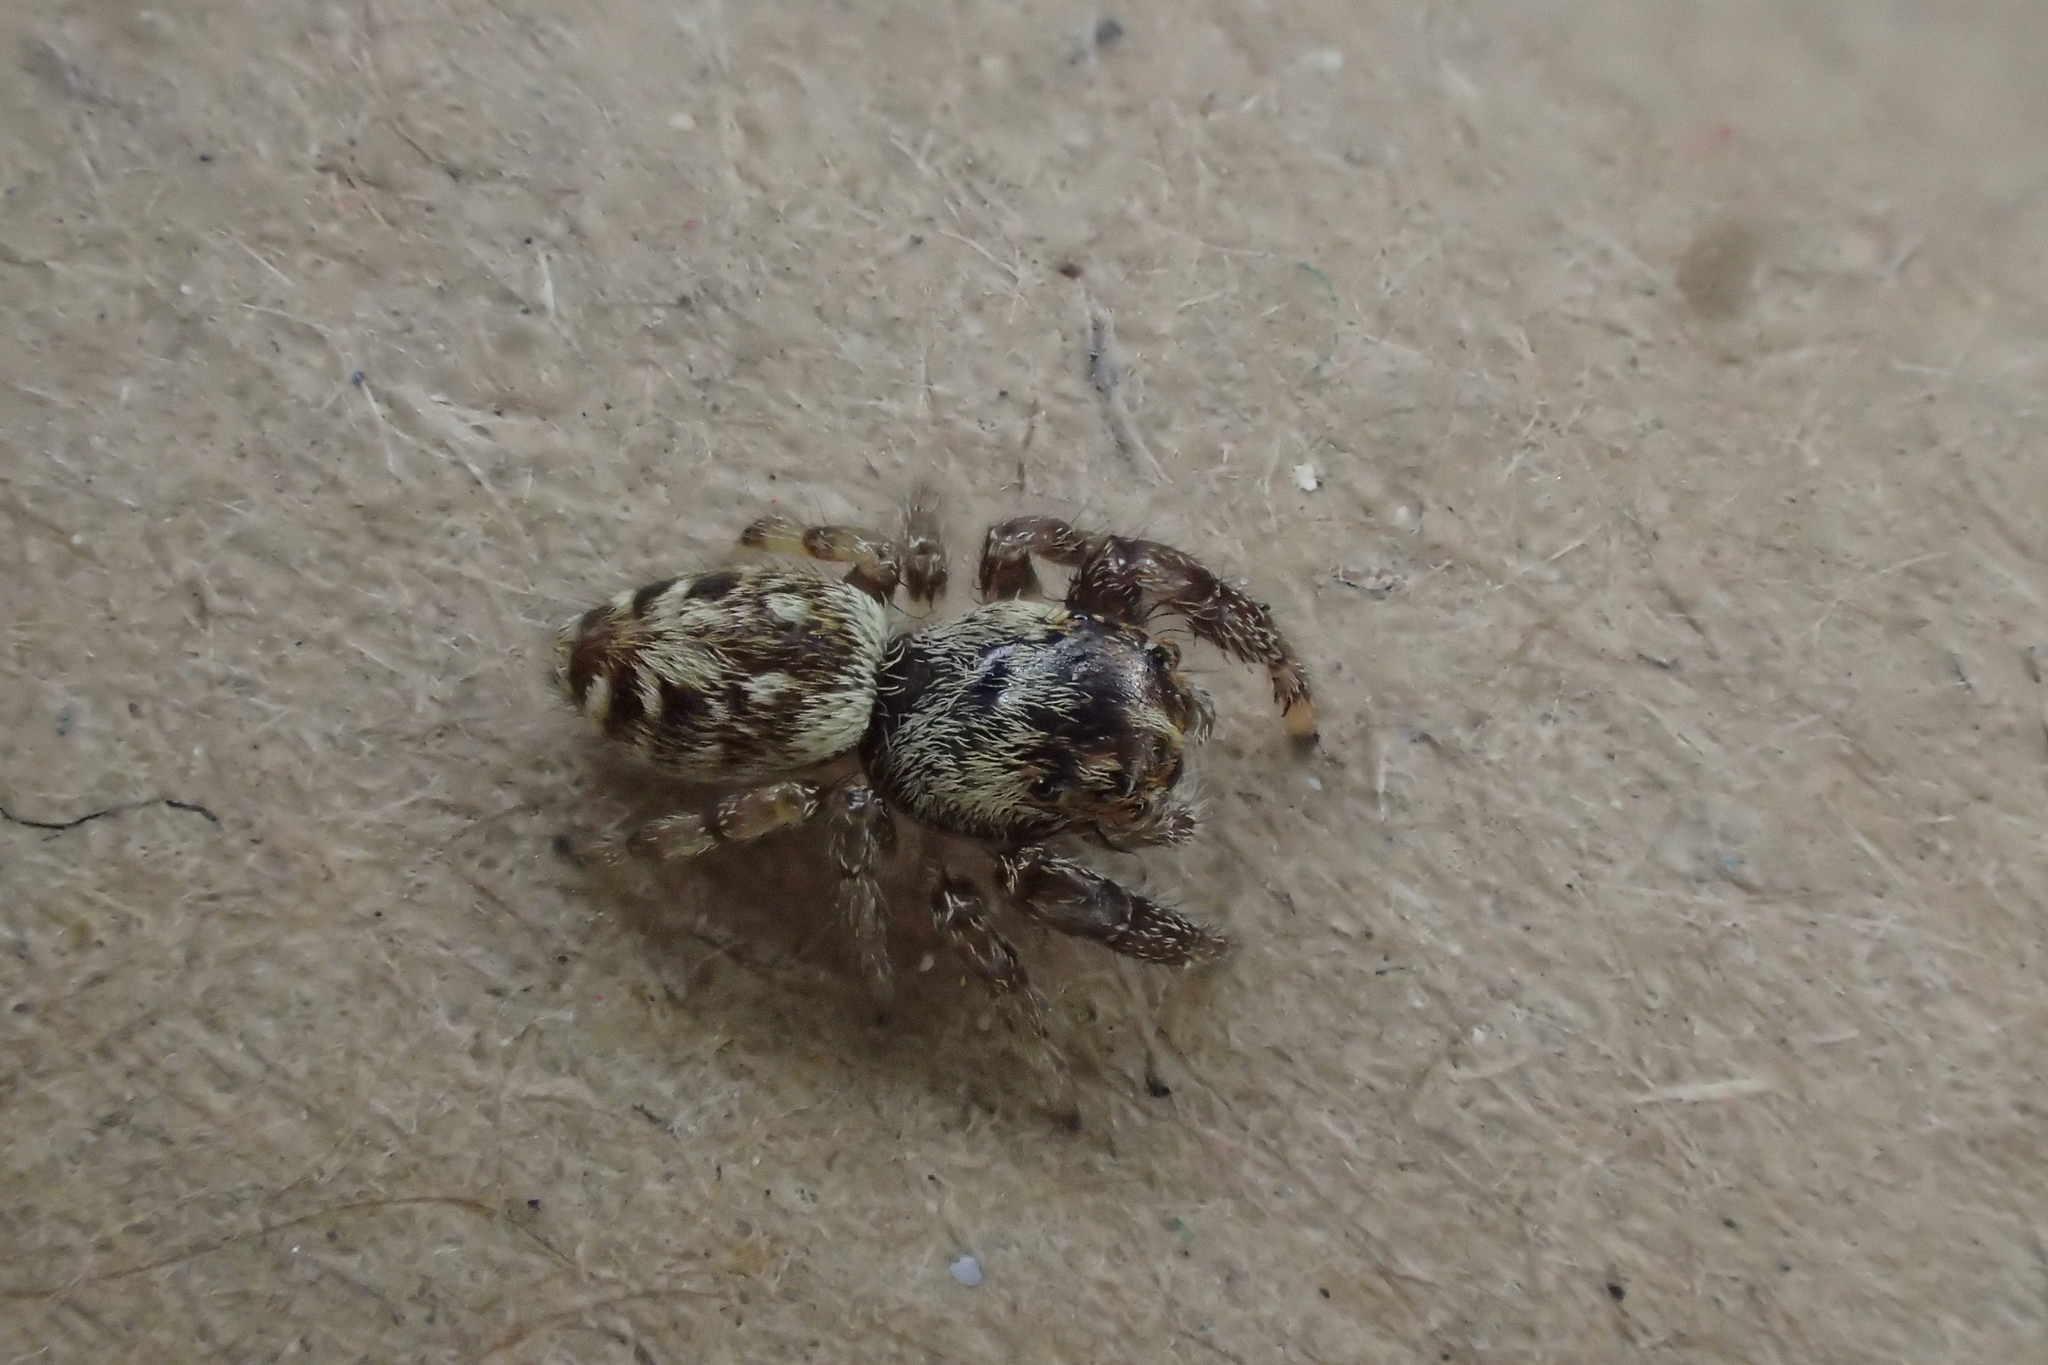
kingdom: Animalia
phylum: Arthropoda
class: Arachnida
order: Araneae
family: Salticidae
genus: Macaroeris
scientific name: Macaroeris nidicolens
